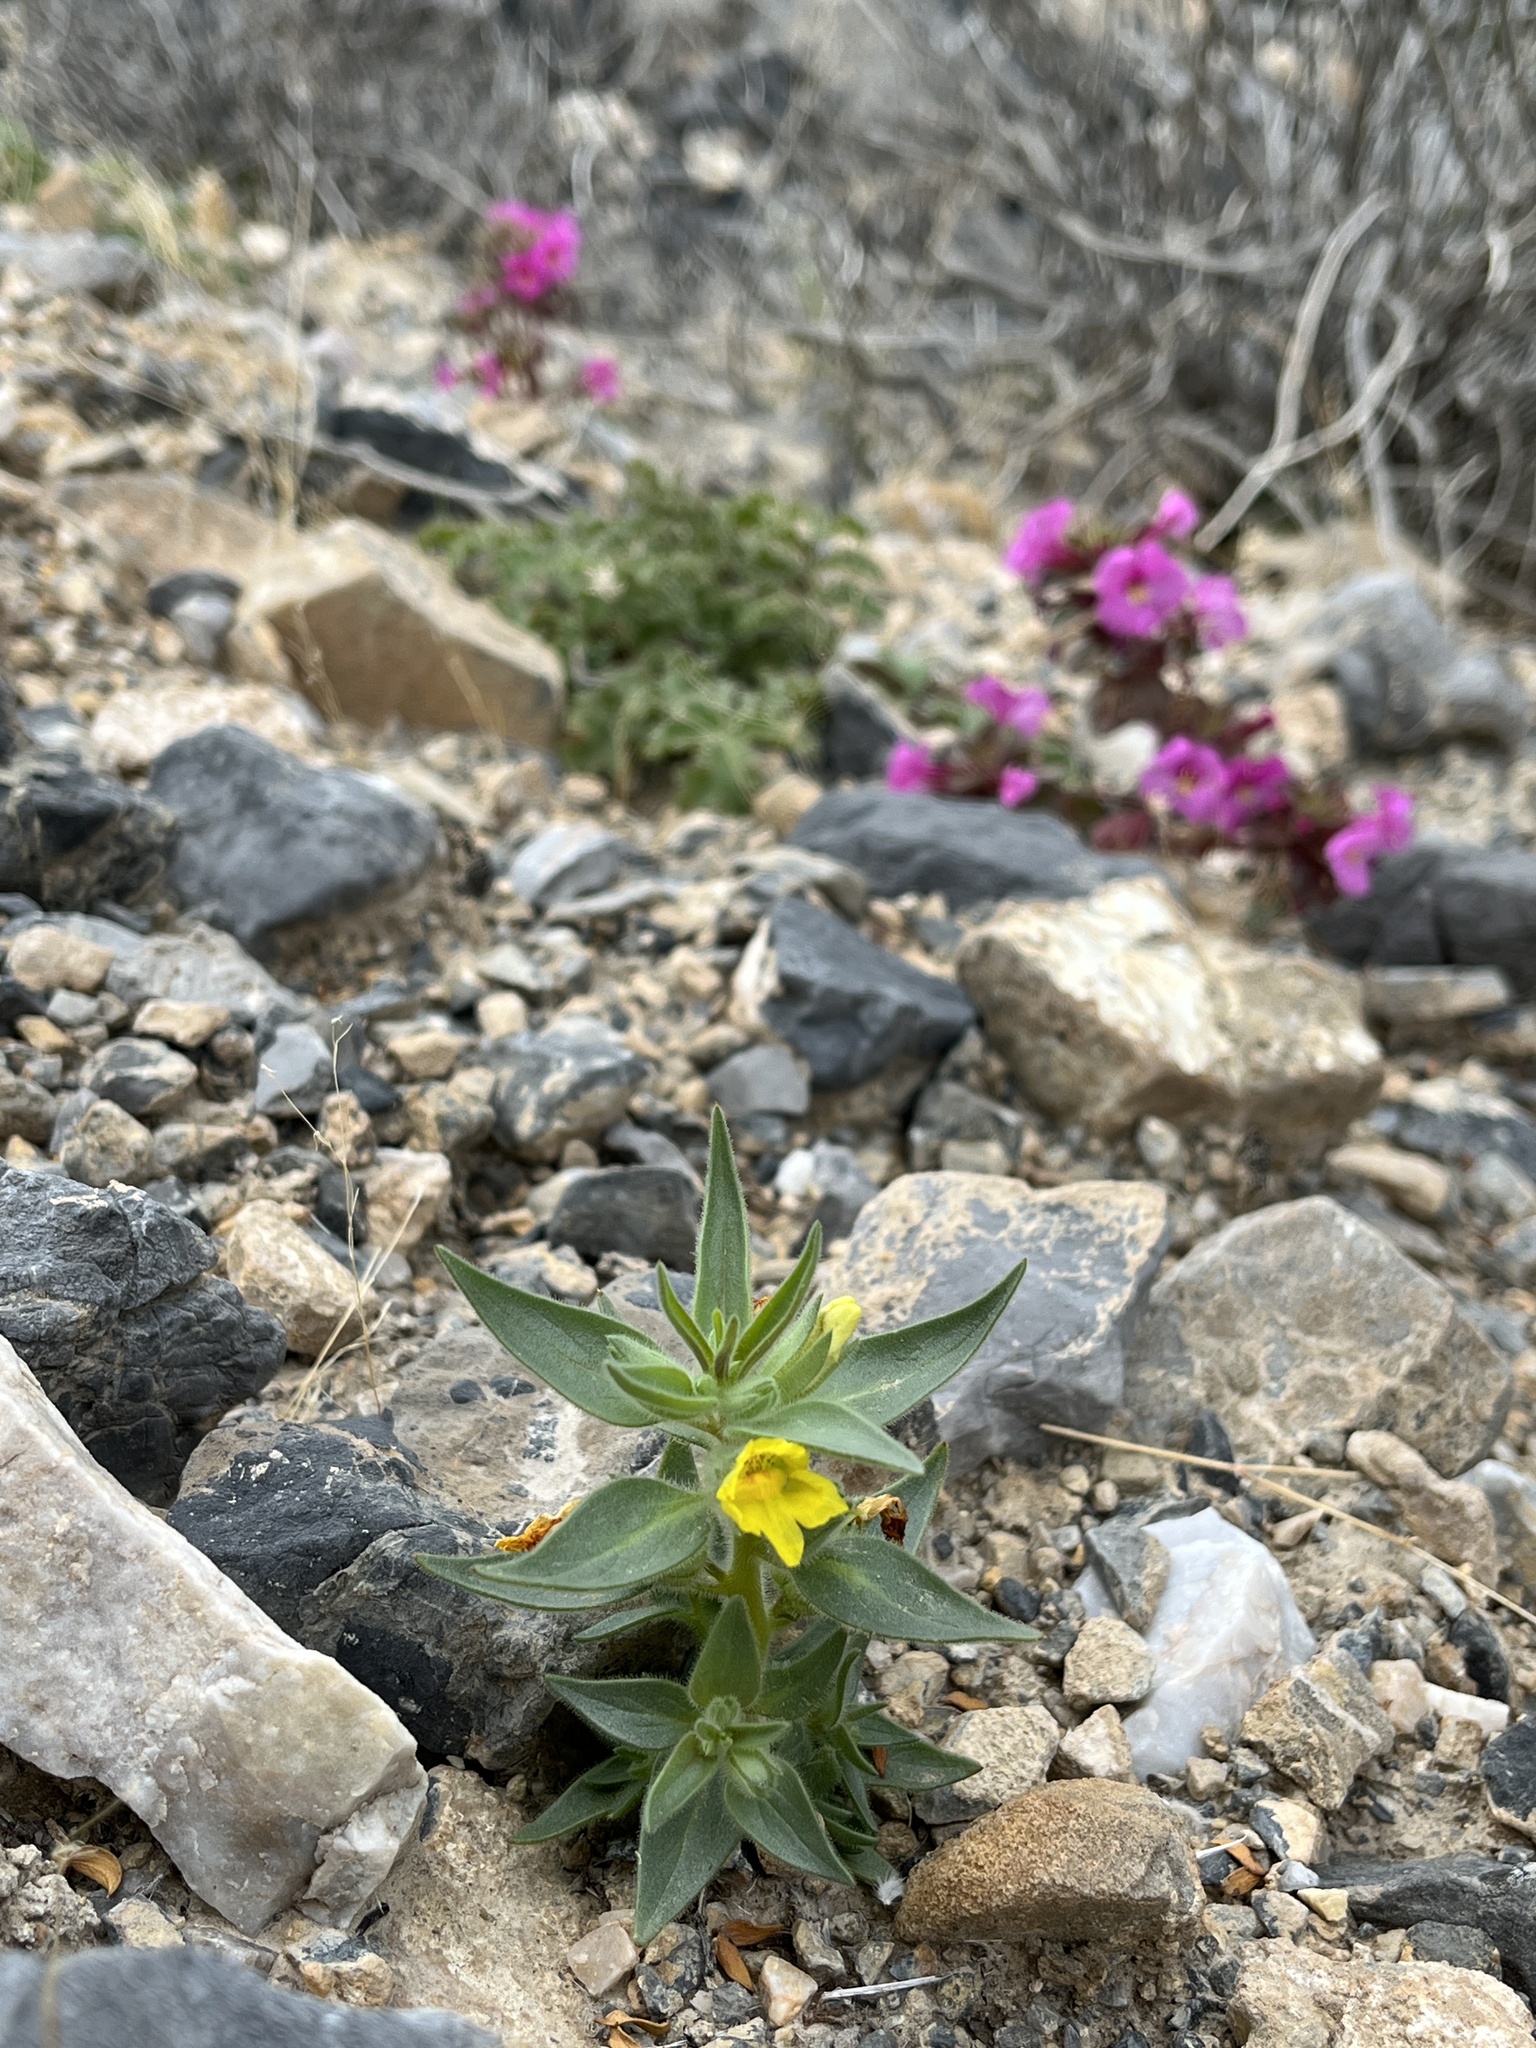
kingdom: Plantae
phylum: Tracheophyta
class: Magnoliopsida
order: Lamiales
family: Plantaginaceae
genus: Mohavea
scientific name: Mohavea breviflora
